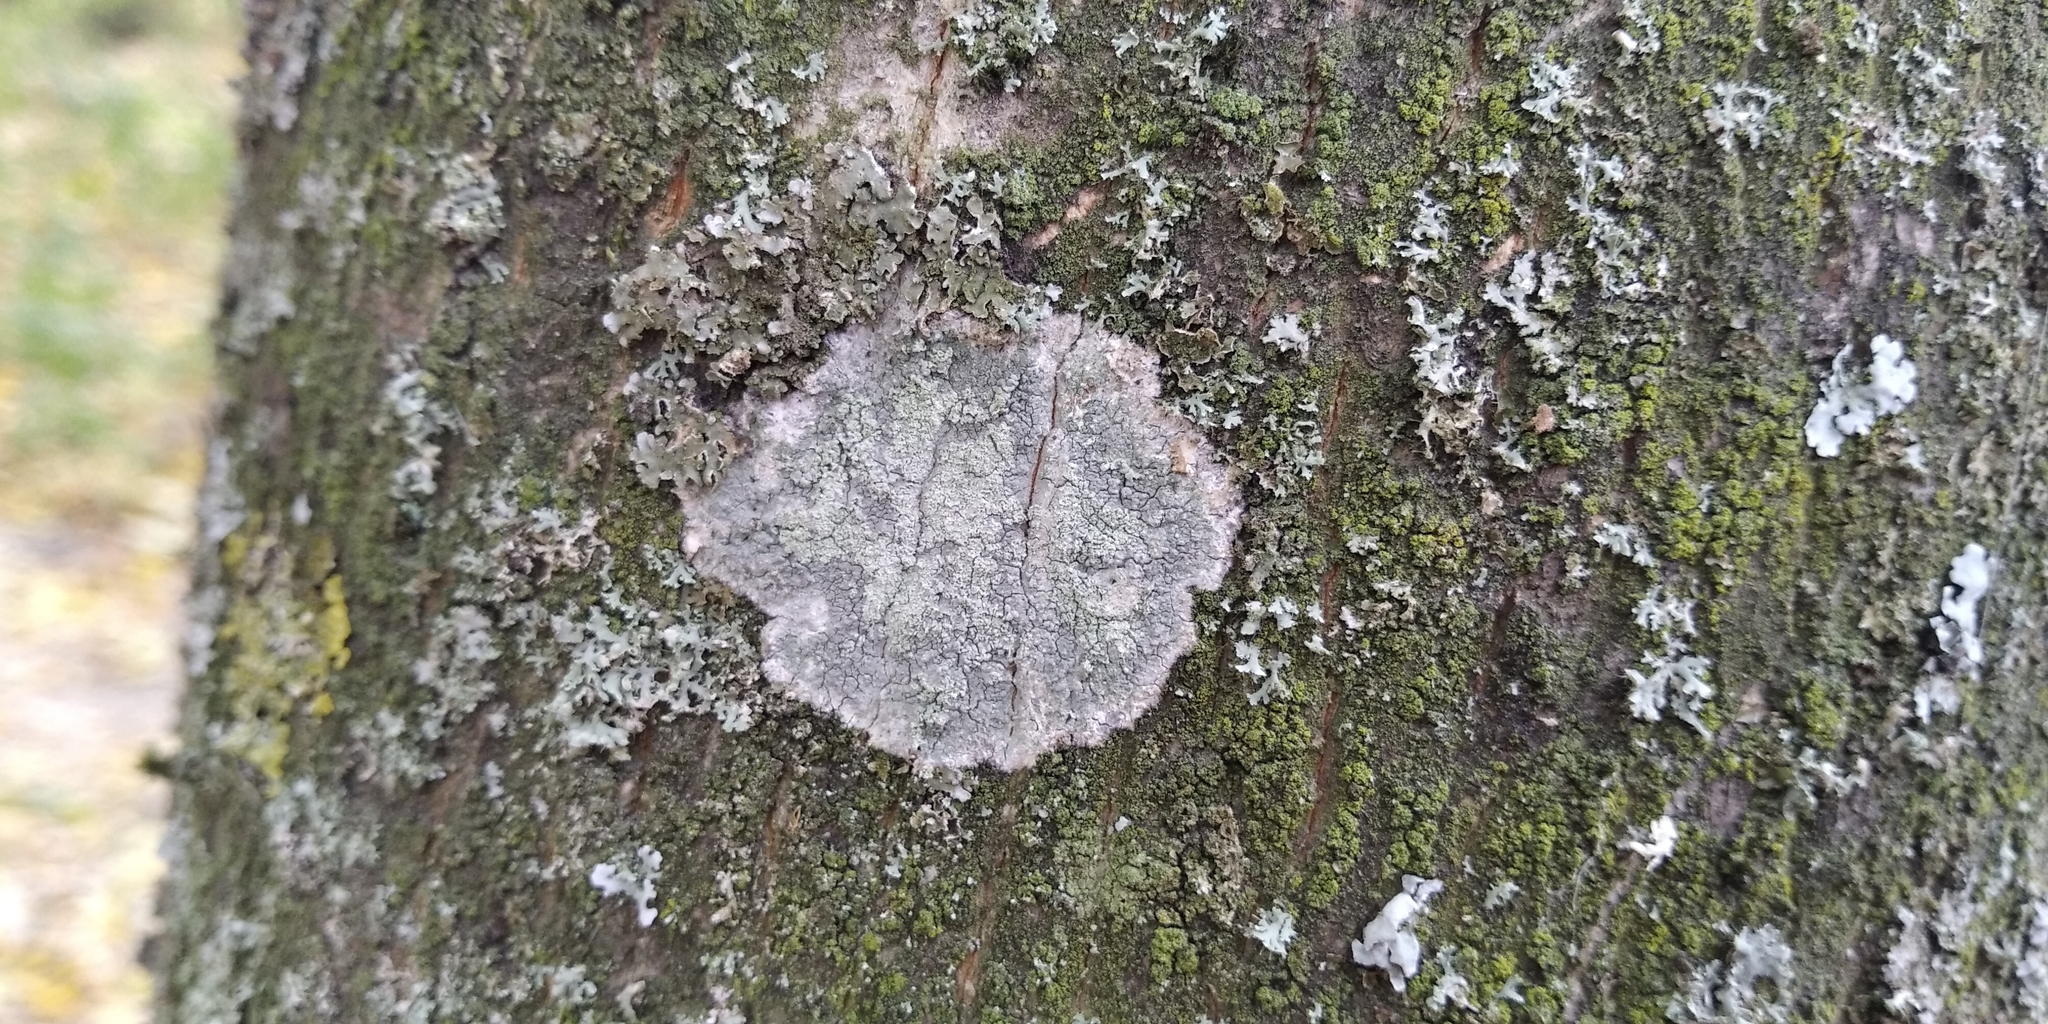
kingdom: Fungi
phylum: Ascomycota
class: Lecanoromycetes
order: Ostropales
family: Phlyctidaceae
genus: Phlyctis
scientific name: Phlyctis argena
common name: Whitewash lichen
